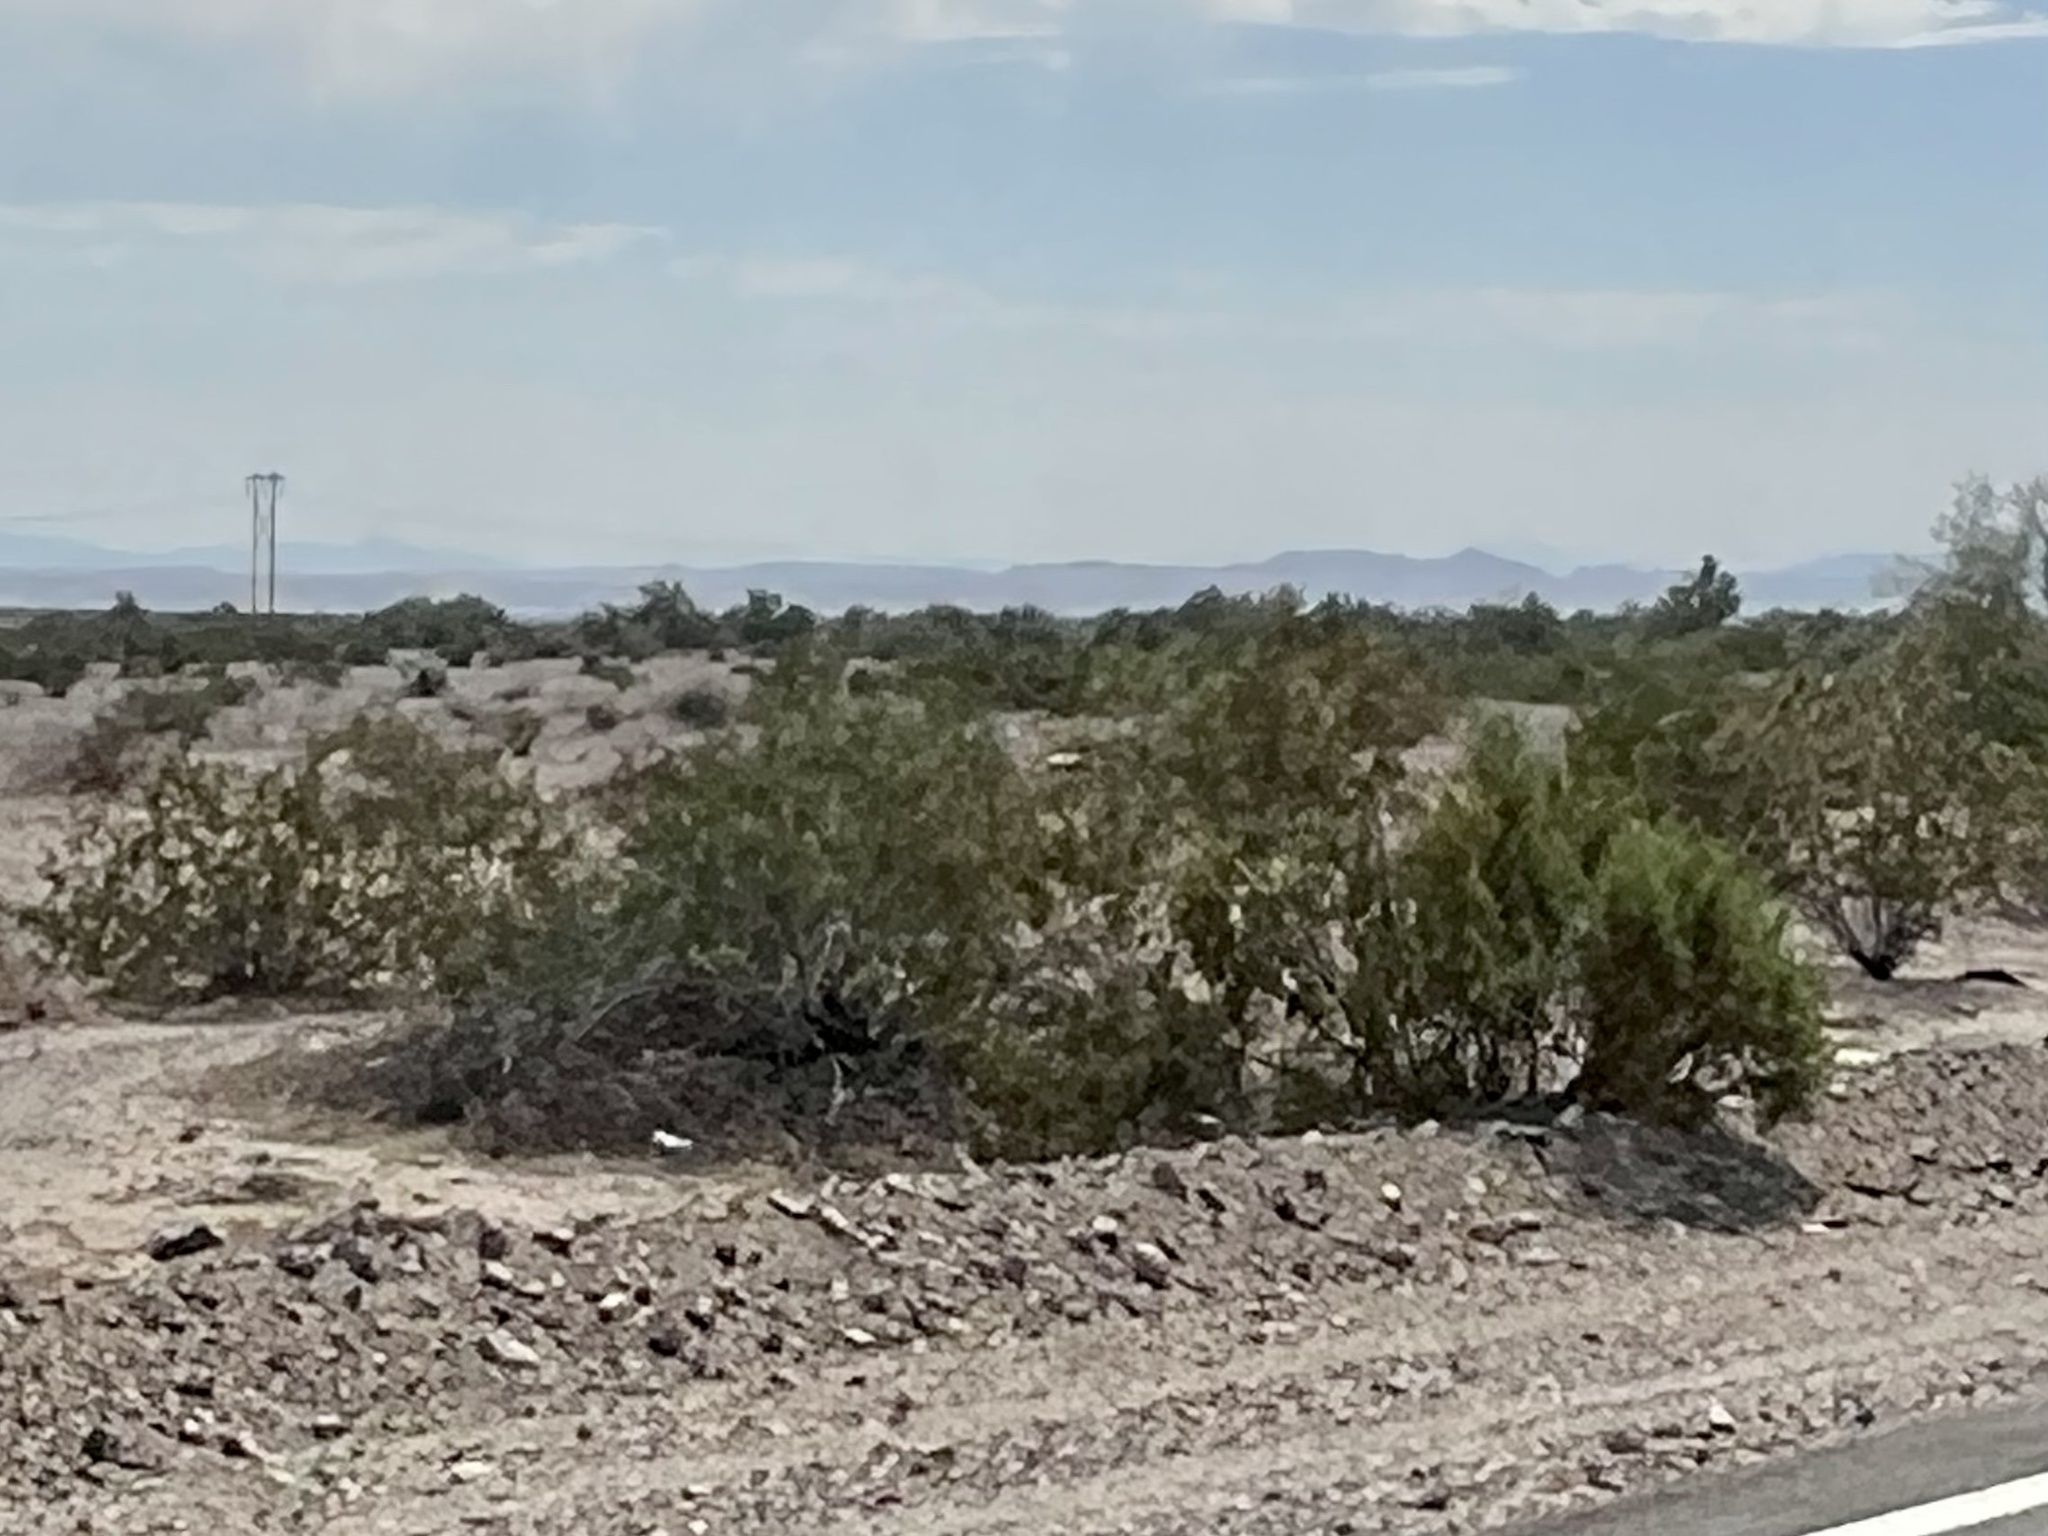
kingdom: Plantae
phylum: Tracheophyta
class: Magnoliopsida
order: Zygophyllales
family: Zygophyllaceae
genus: Larrea
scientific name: Larrea tridentata
